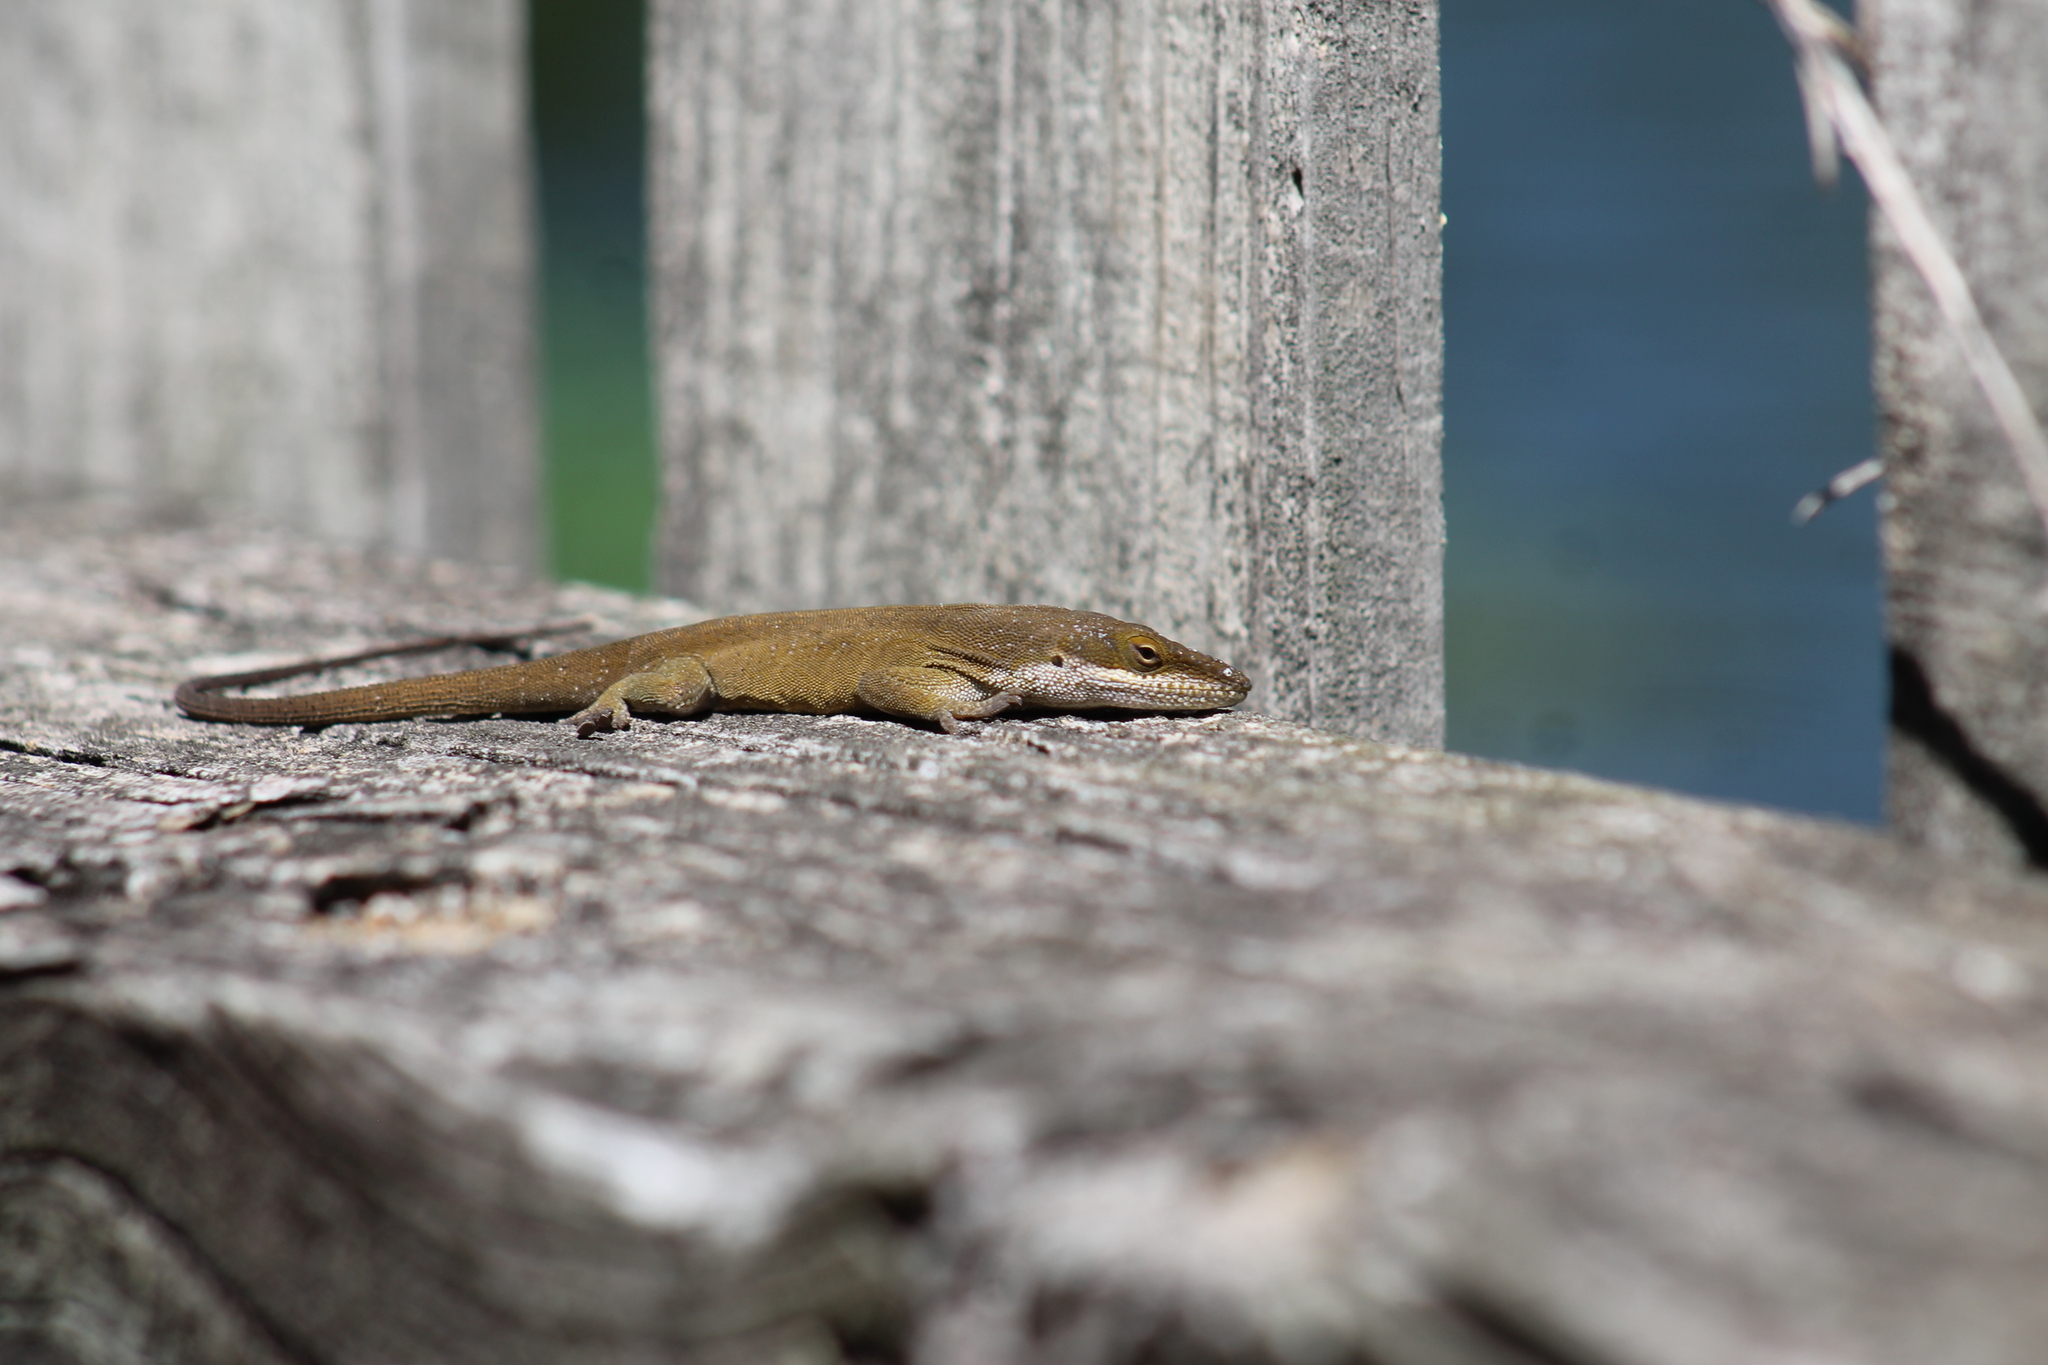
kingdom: Animalia
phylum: Chordata
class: Squamata
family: Dactyloidae
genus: Anolis
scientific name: Anolis carolinensis
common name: Green anole
